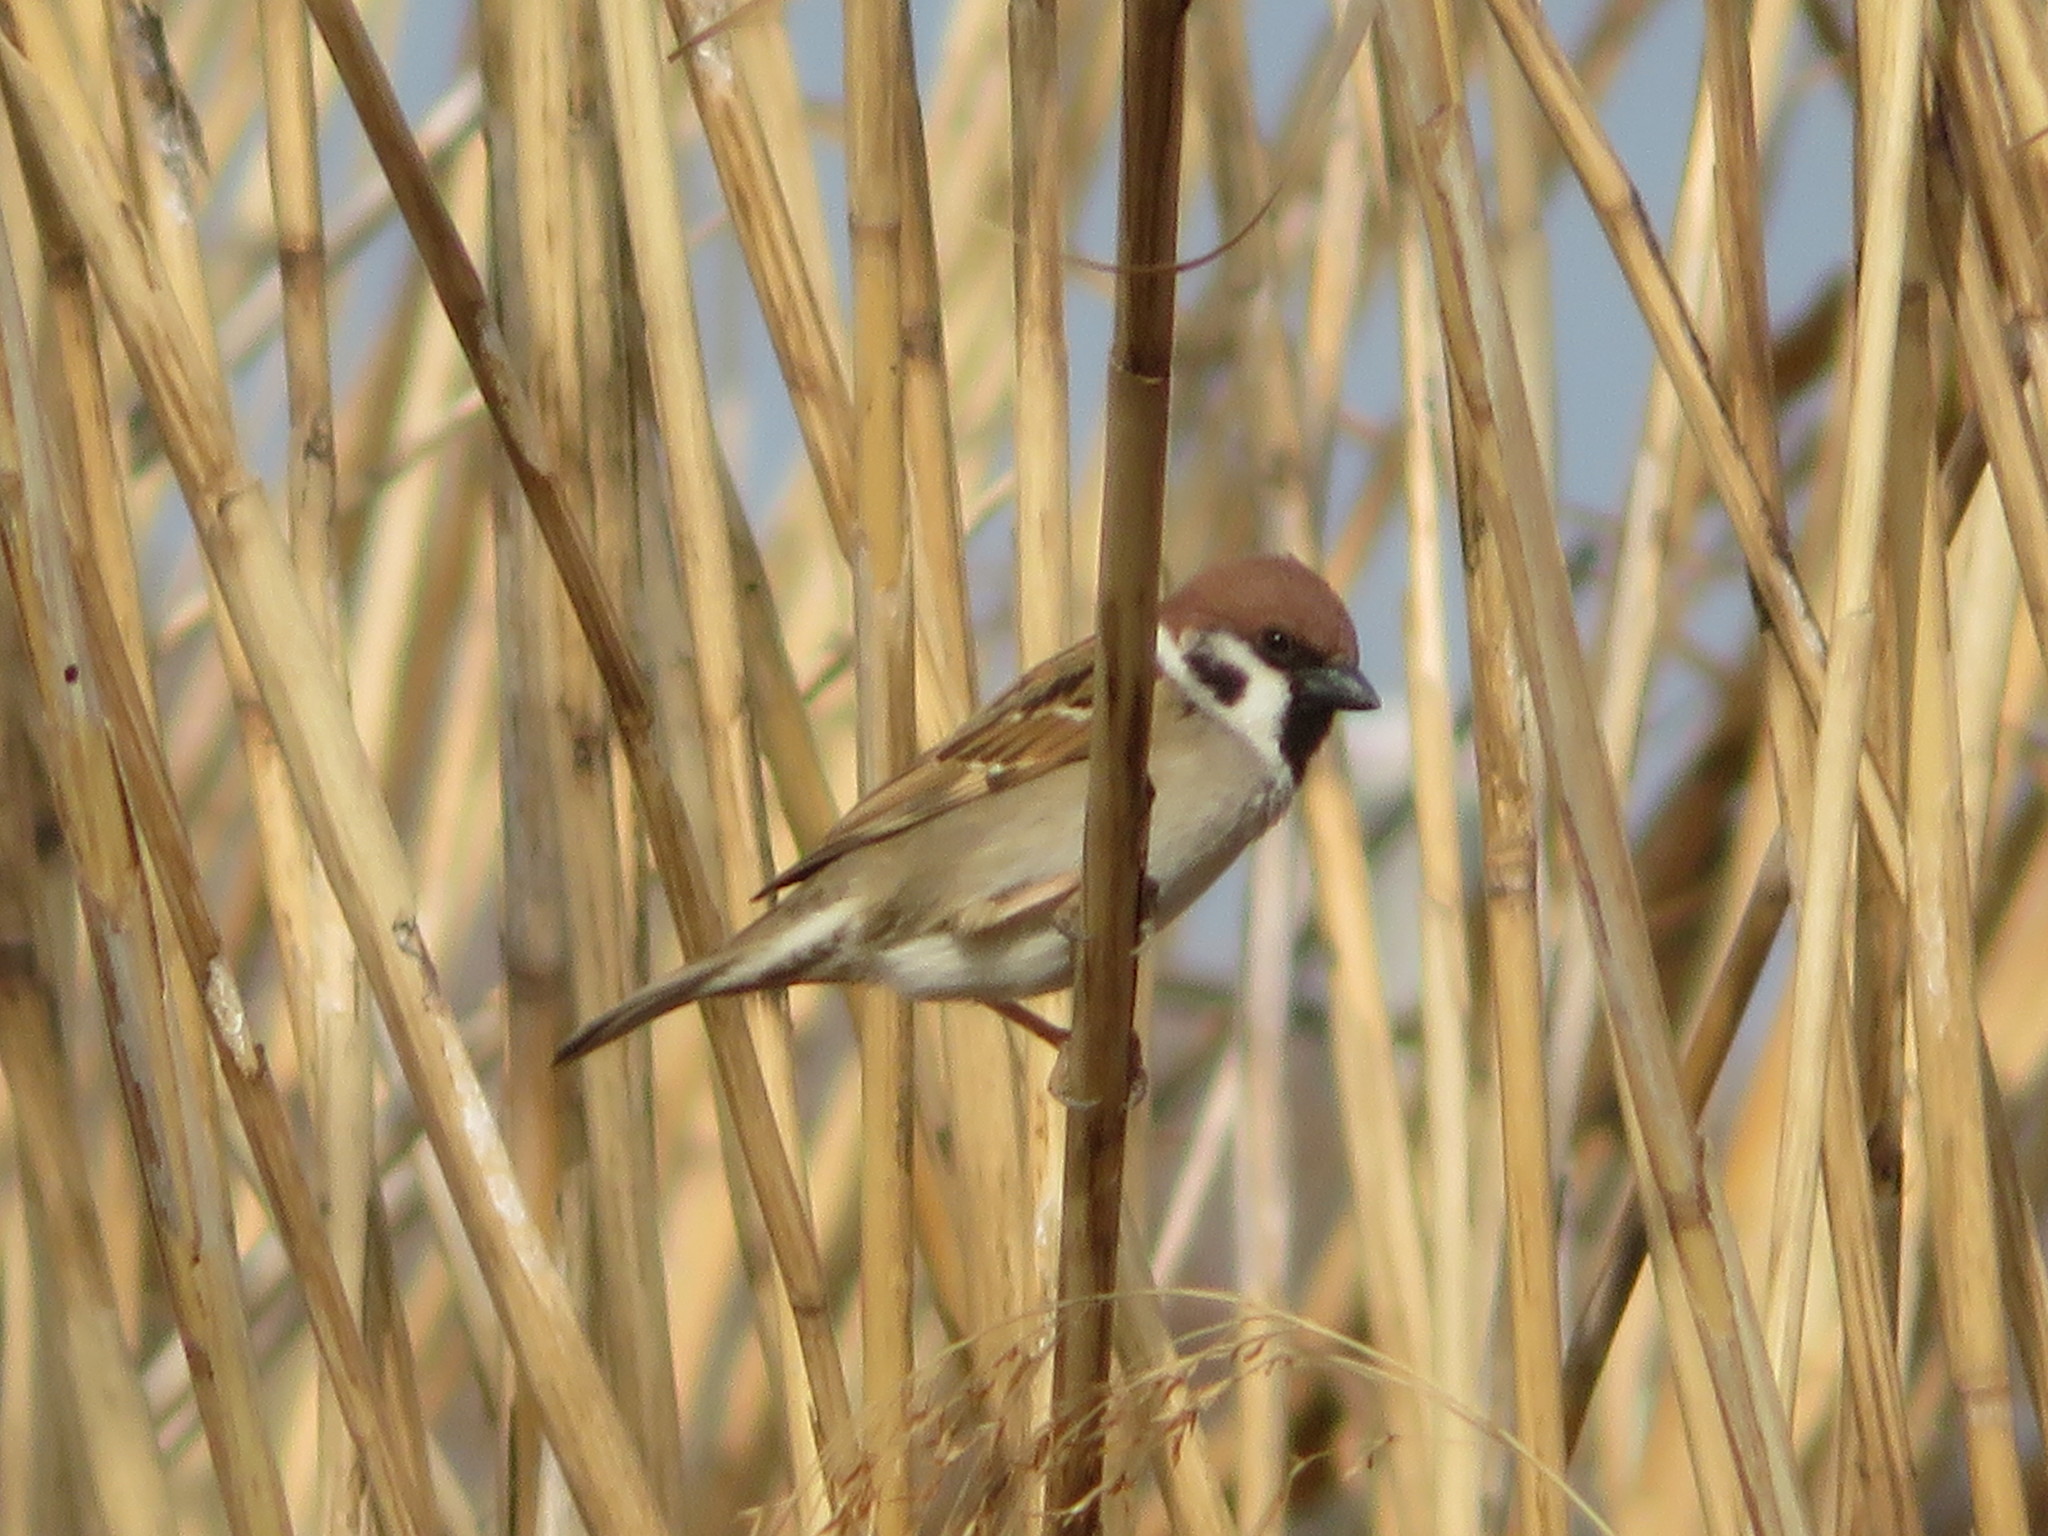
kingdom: Animalia
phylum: Chordata
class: Aves
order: Passeriformes
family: Passeridae
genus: Passer
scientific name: Passer montanus
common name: Eurasian tree sparrow
